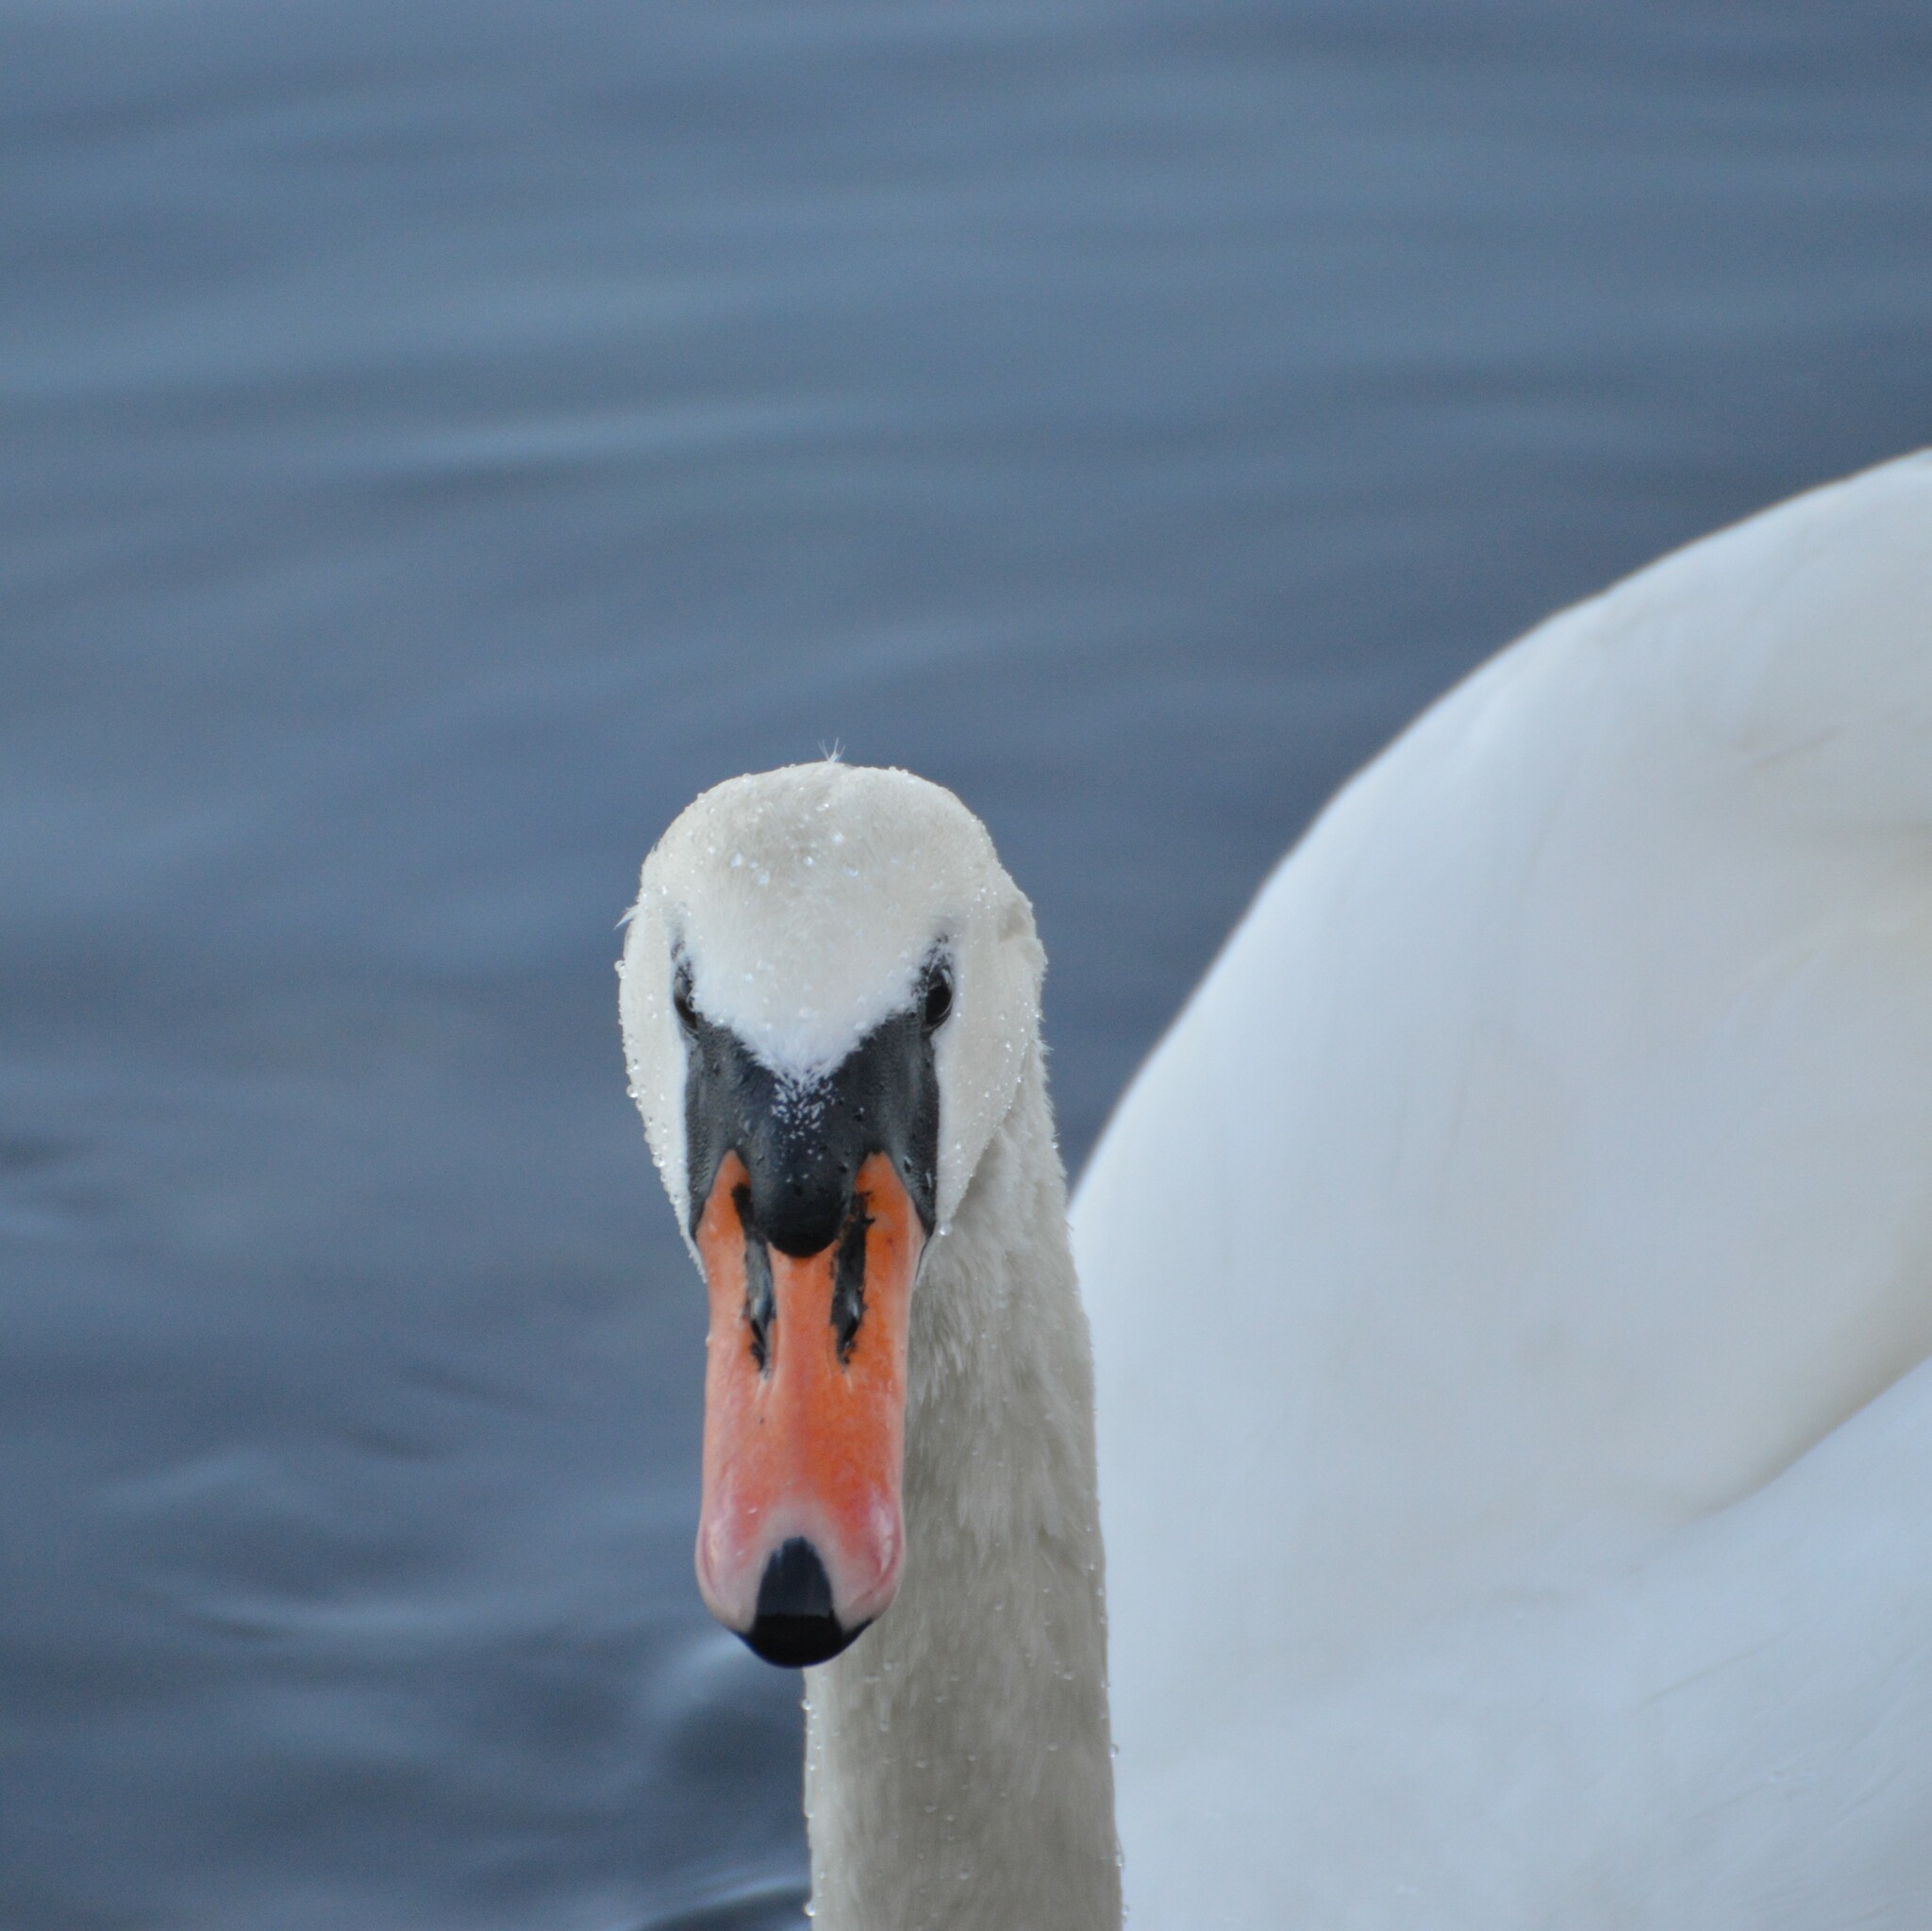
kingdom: Animalia
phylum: Chordata
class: Aves
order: Anseriformes
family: Anatidae
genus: Cygnus
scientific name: Cygnus olor
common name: Mute swan
